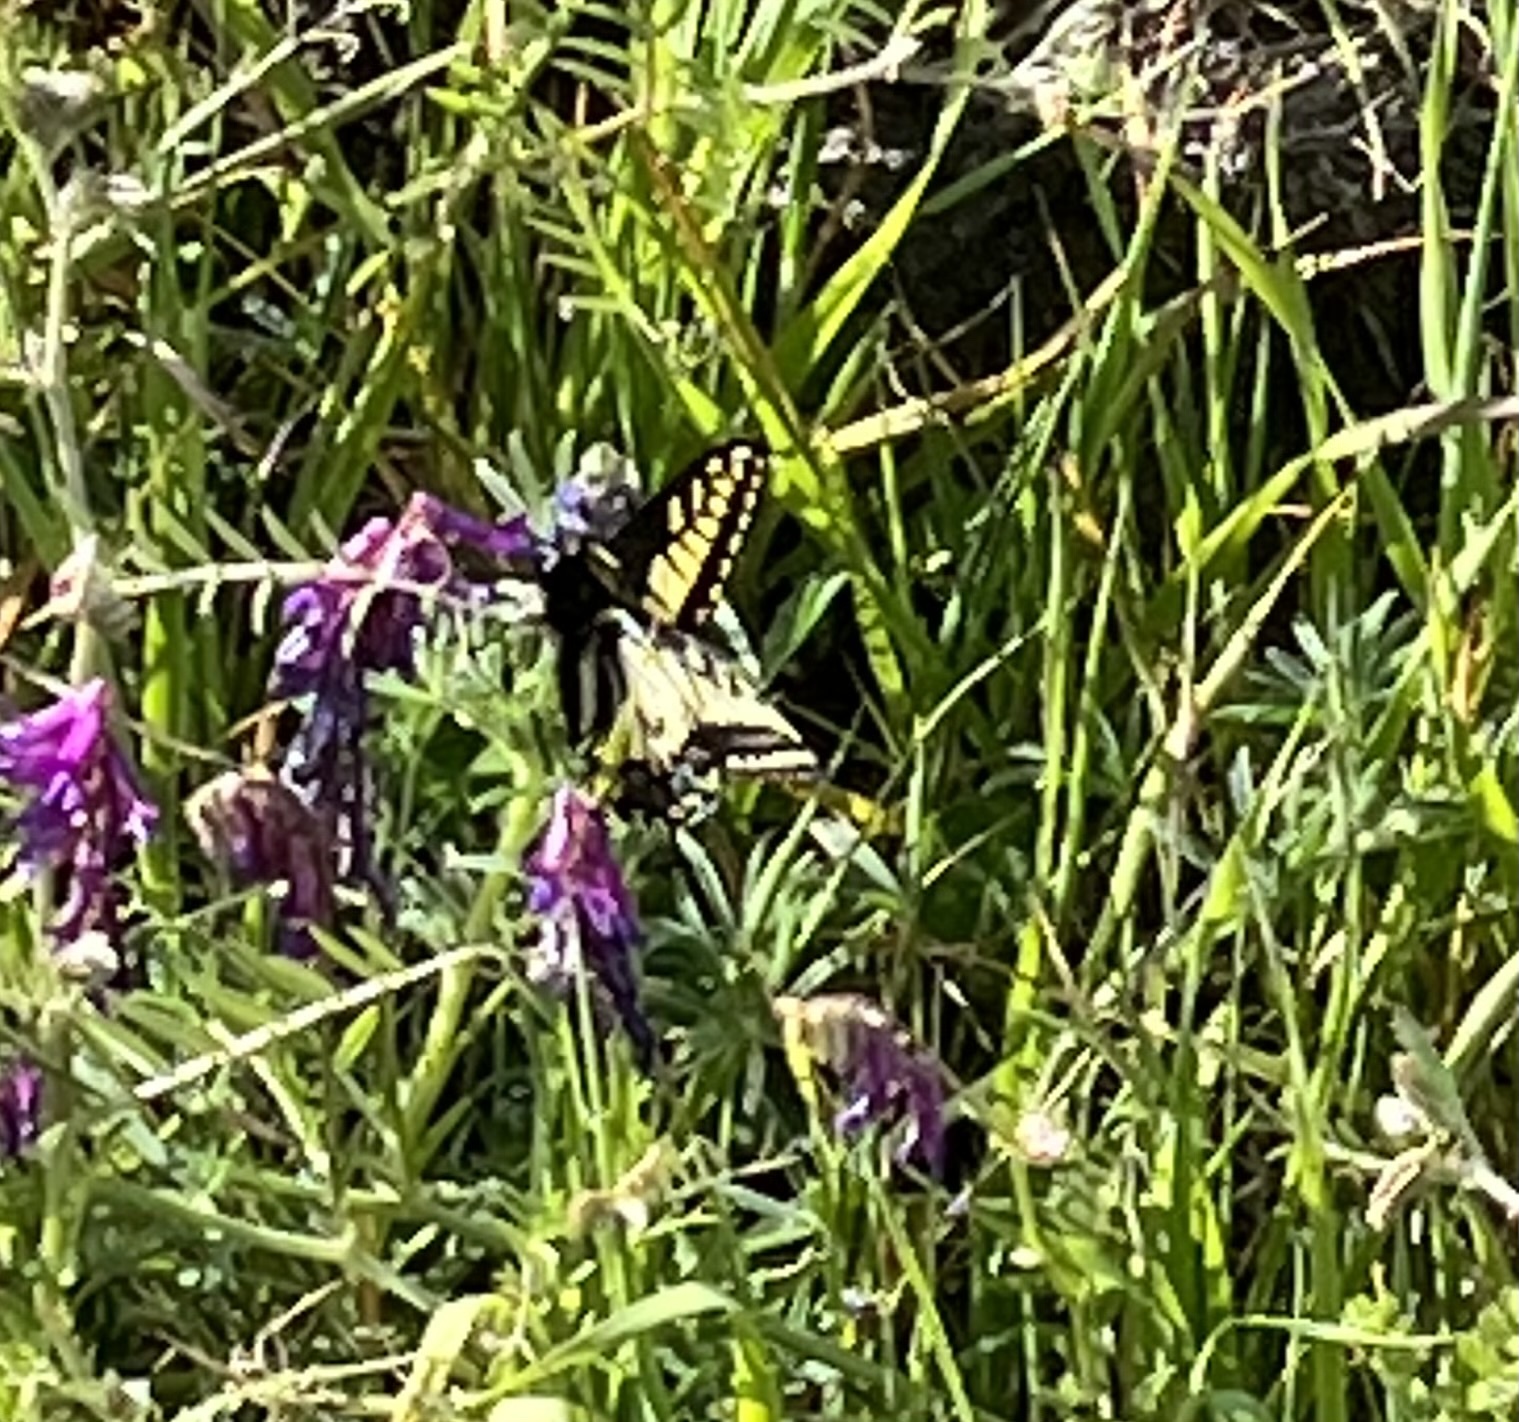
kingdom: Animalia
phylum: Arthropoda
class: Insecta
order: Lepidoptera
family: Papilionidae
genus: Papilio
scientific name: Papilio zelicaon
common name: Anise swallowtail
